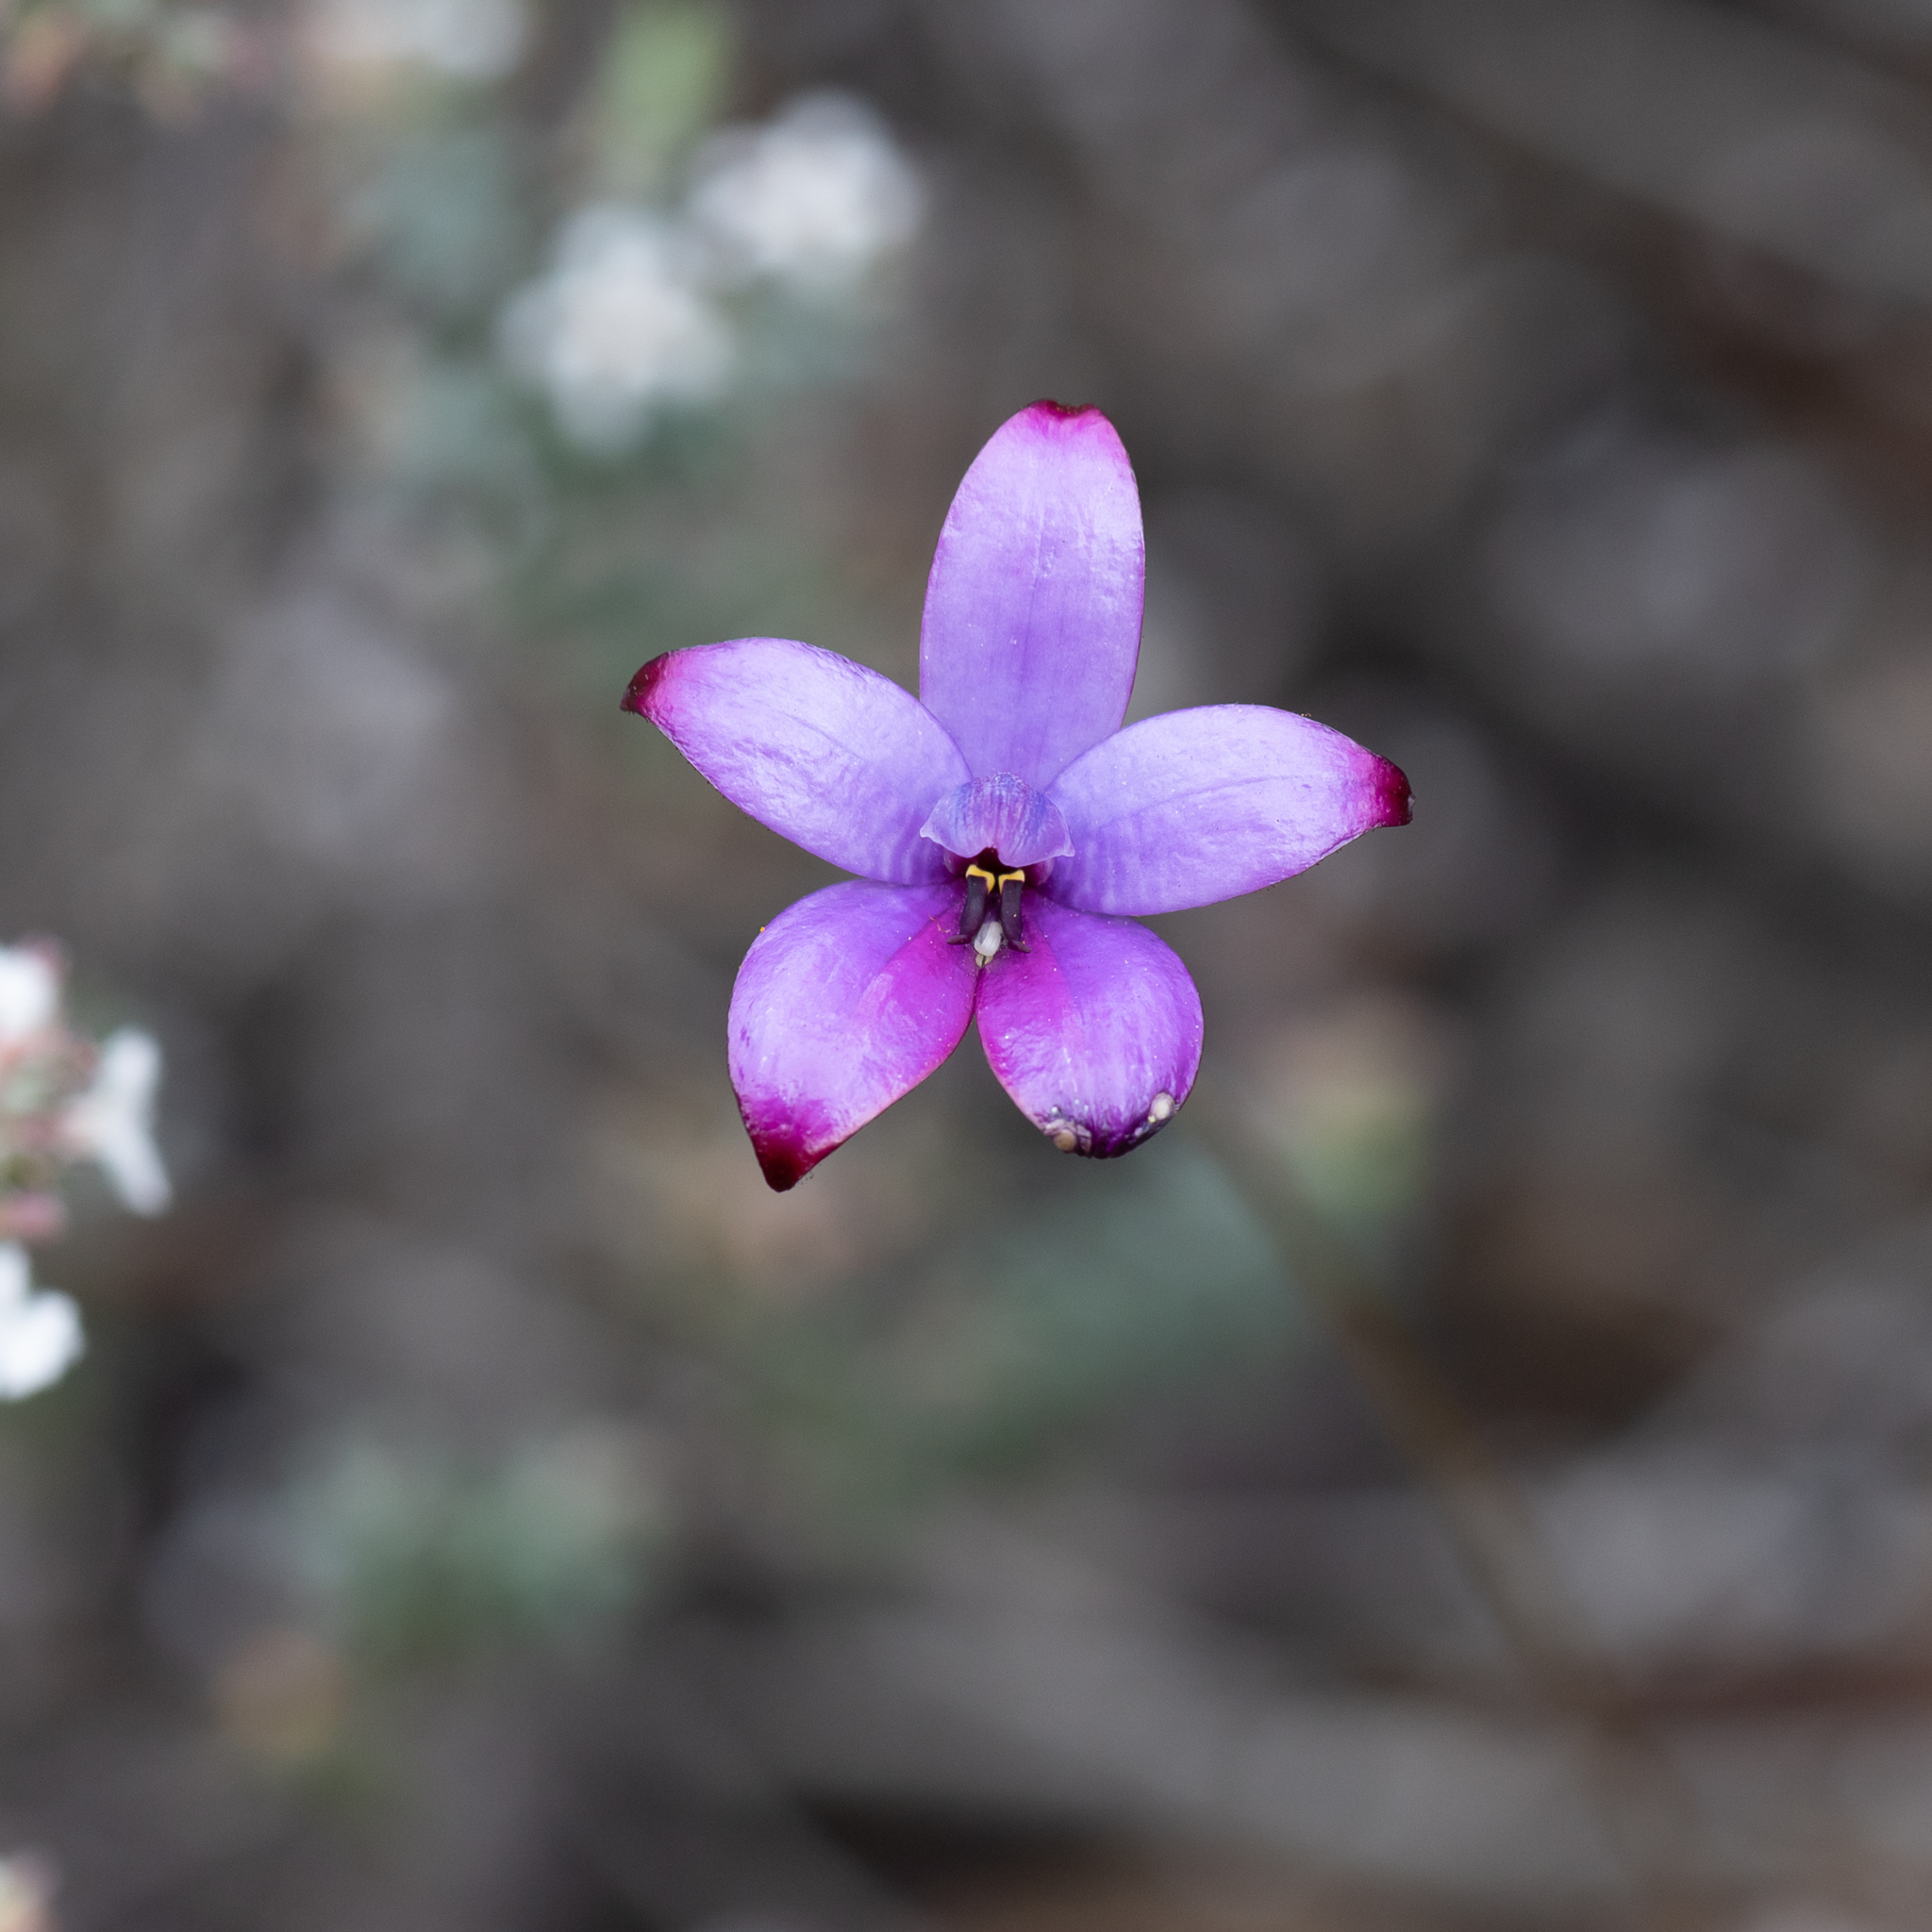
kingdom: Plantae
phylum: Tracheophyta
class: Liliopsida
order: Asparagales
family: Orchidaceae
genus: Caladenia
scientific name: Caladenia brunonis
